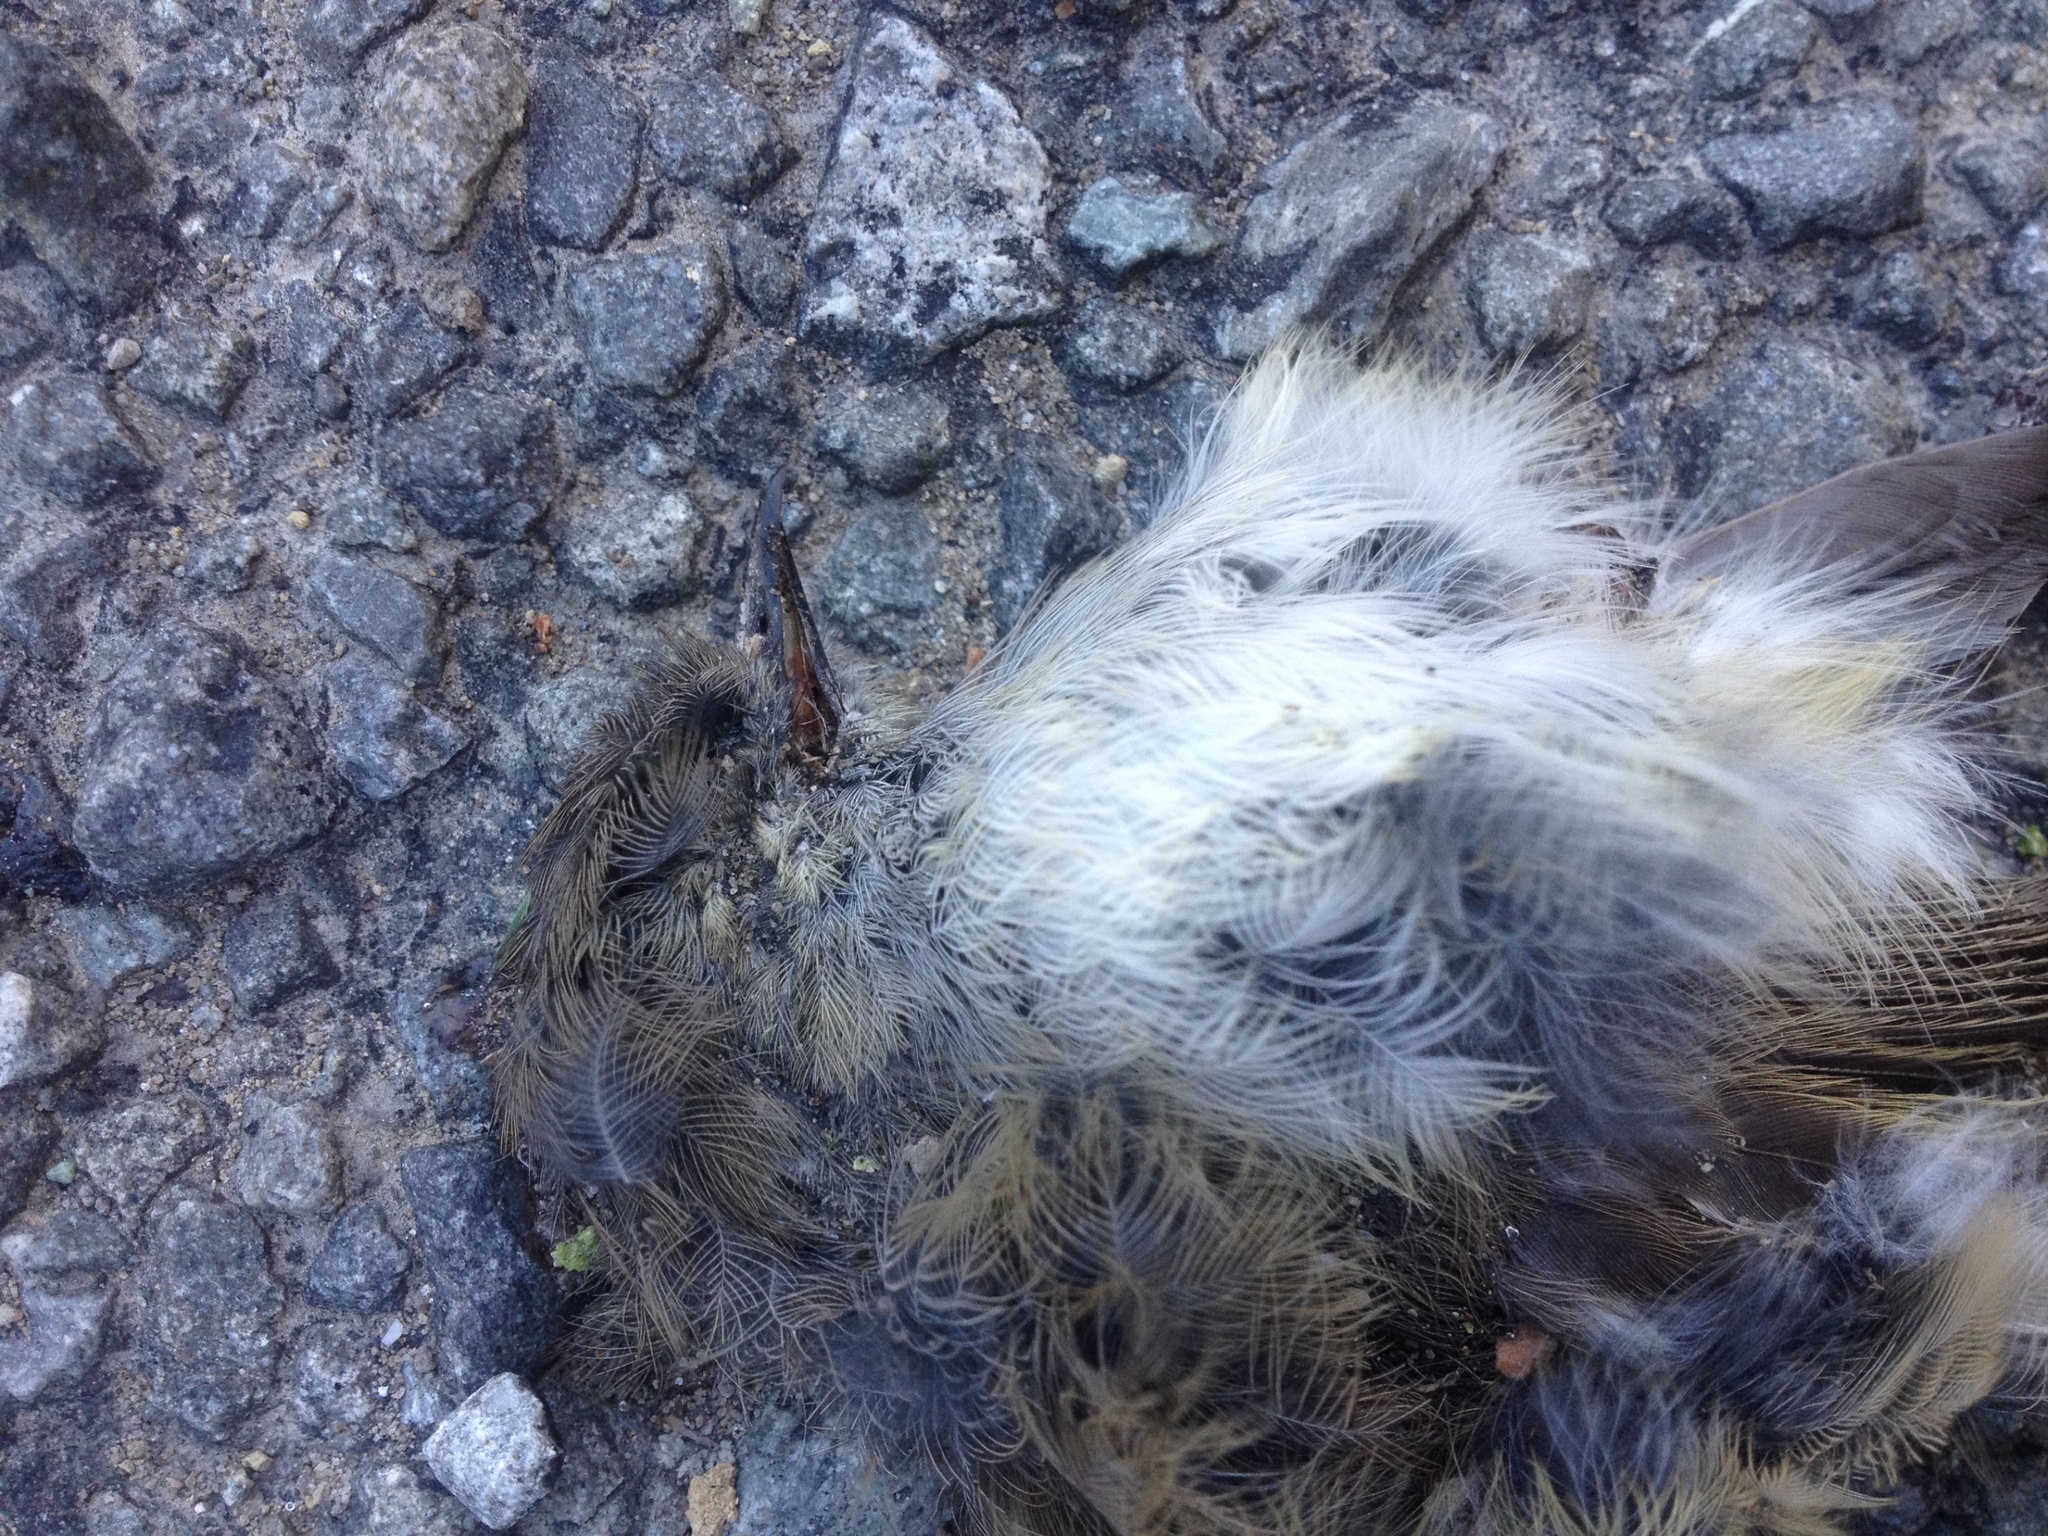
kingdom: Animalia
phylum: Chordata
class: Aves
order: Passeriformes
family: Acanthizidae
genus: Gerygone
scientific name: Gerygone igata
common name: Grey gerygone
